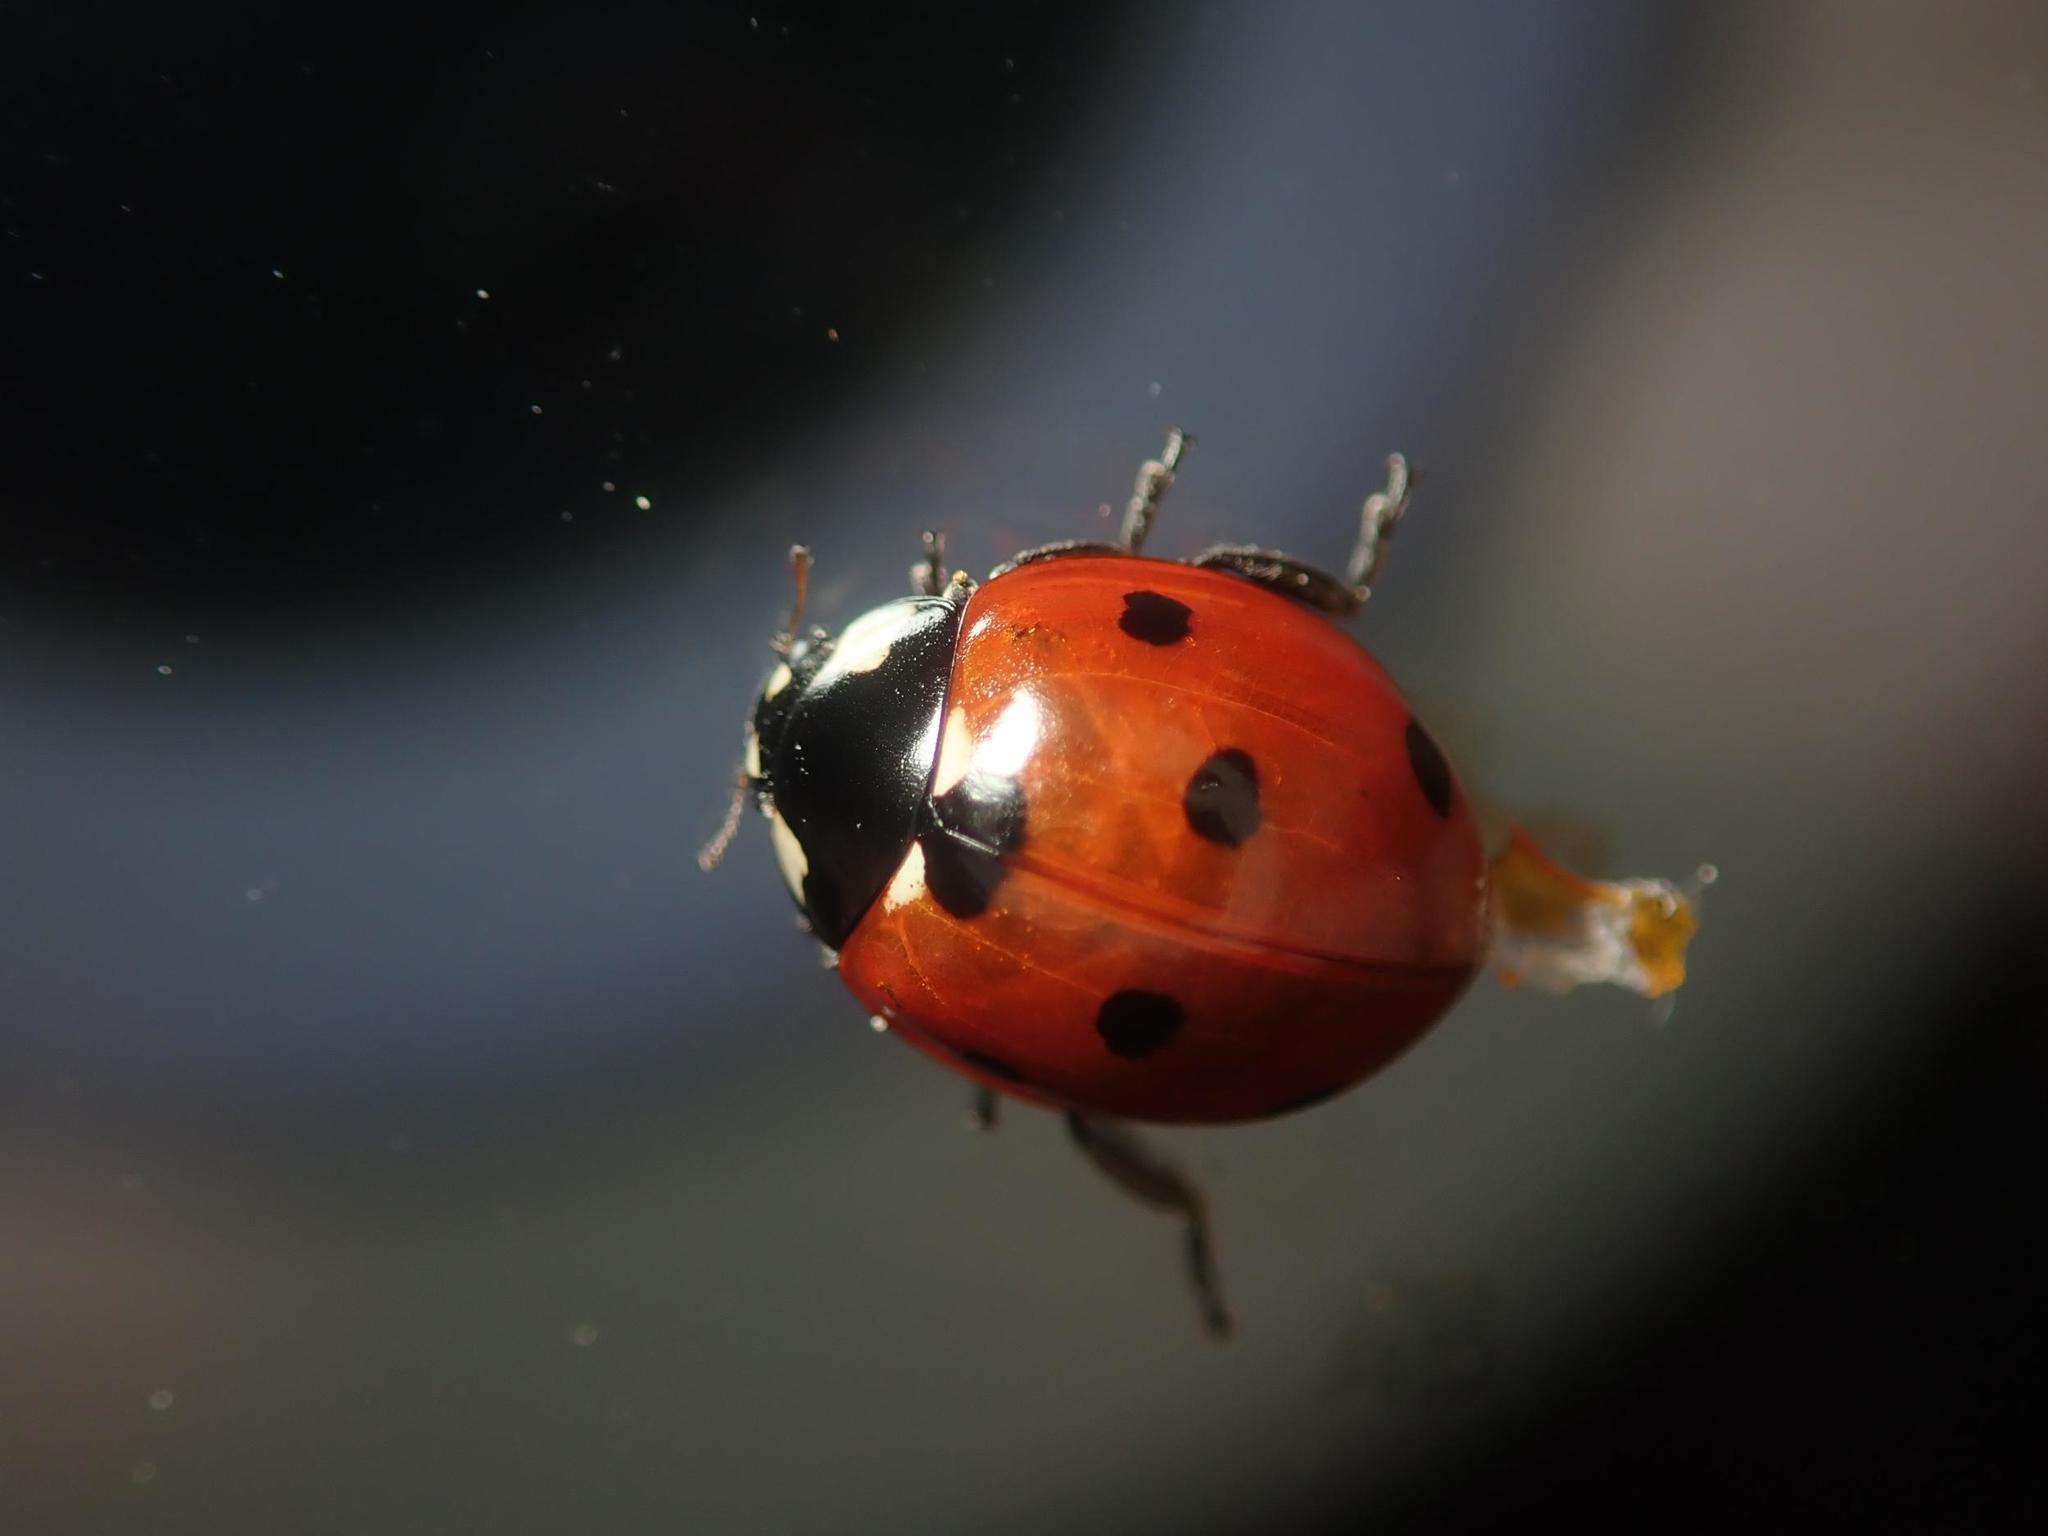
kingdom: Animalia
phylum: Arthropoda
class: Insecta
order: Coleoptera
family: Coccinellidae
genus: Coccinella
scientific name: Coccinella septempunctata
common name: Sevenspotted lady beetle
